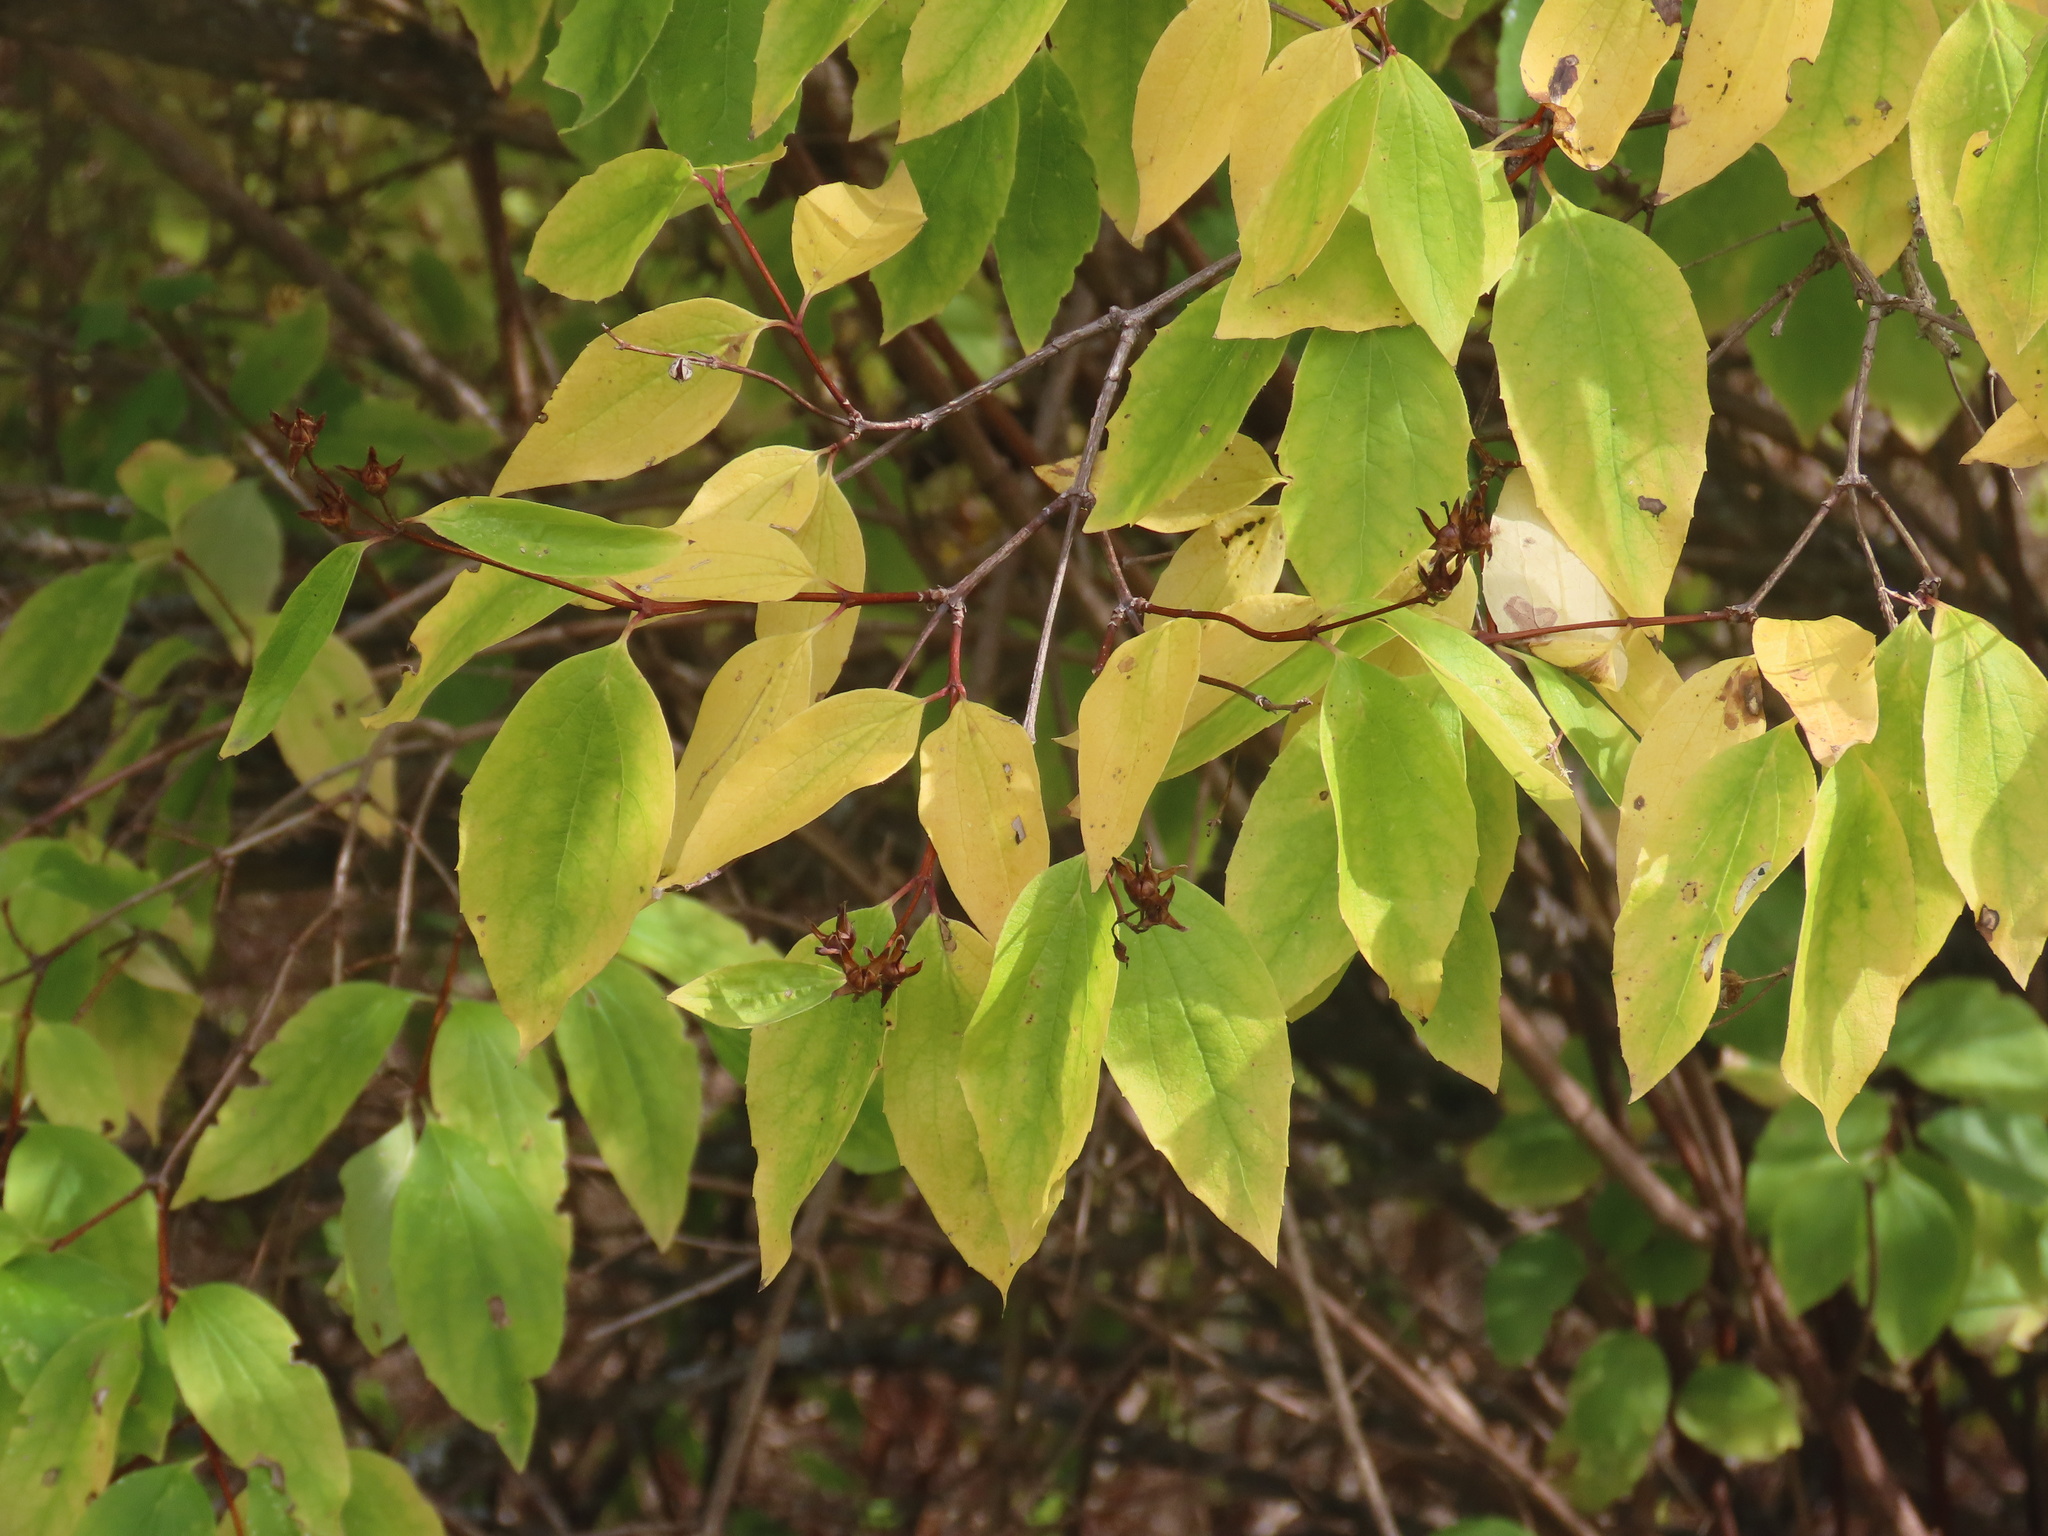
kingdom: Plantae
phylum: Tracheophyta
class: Magnoliopsida
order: Cornales
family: Hydrangeaceae
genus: Philadelphus
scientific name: Philadelphus lewisii
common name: Lewis's mock orange
